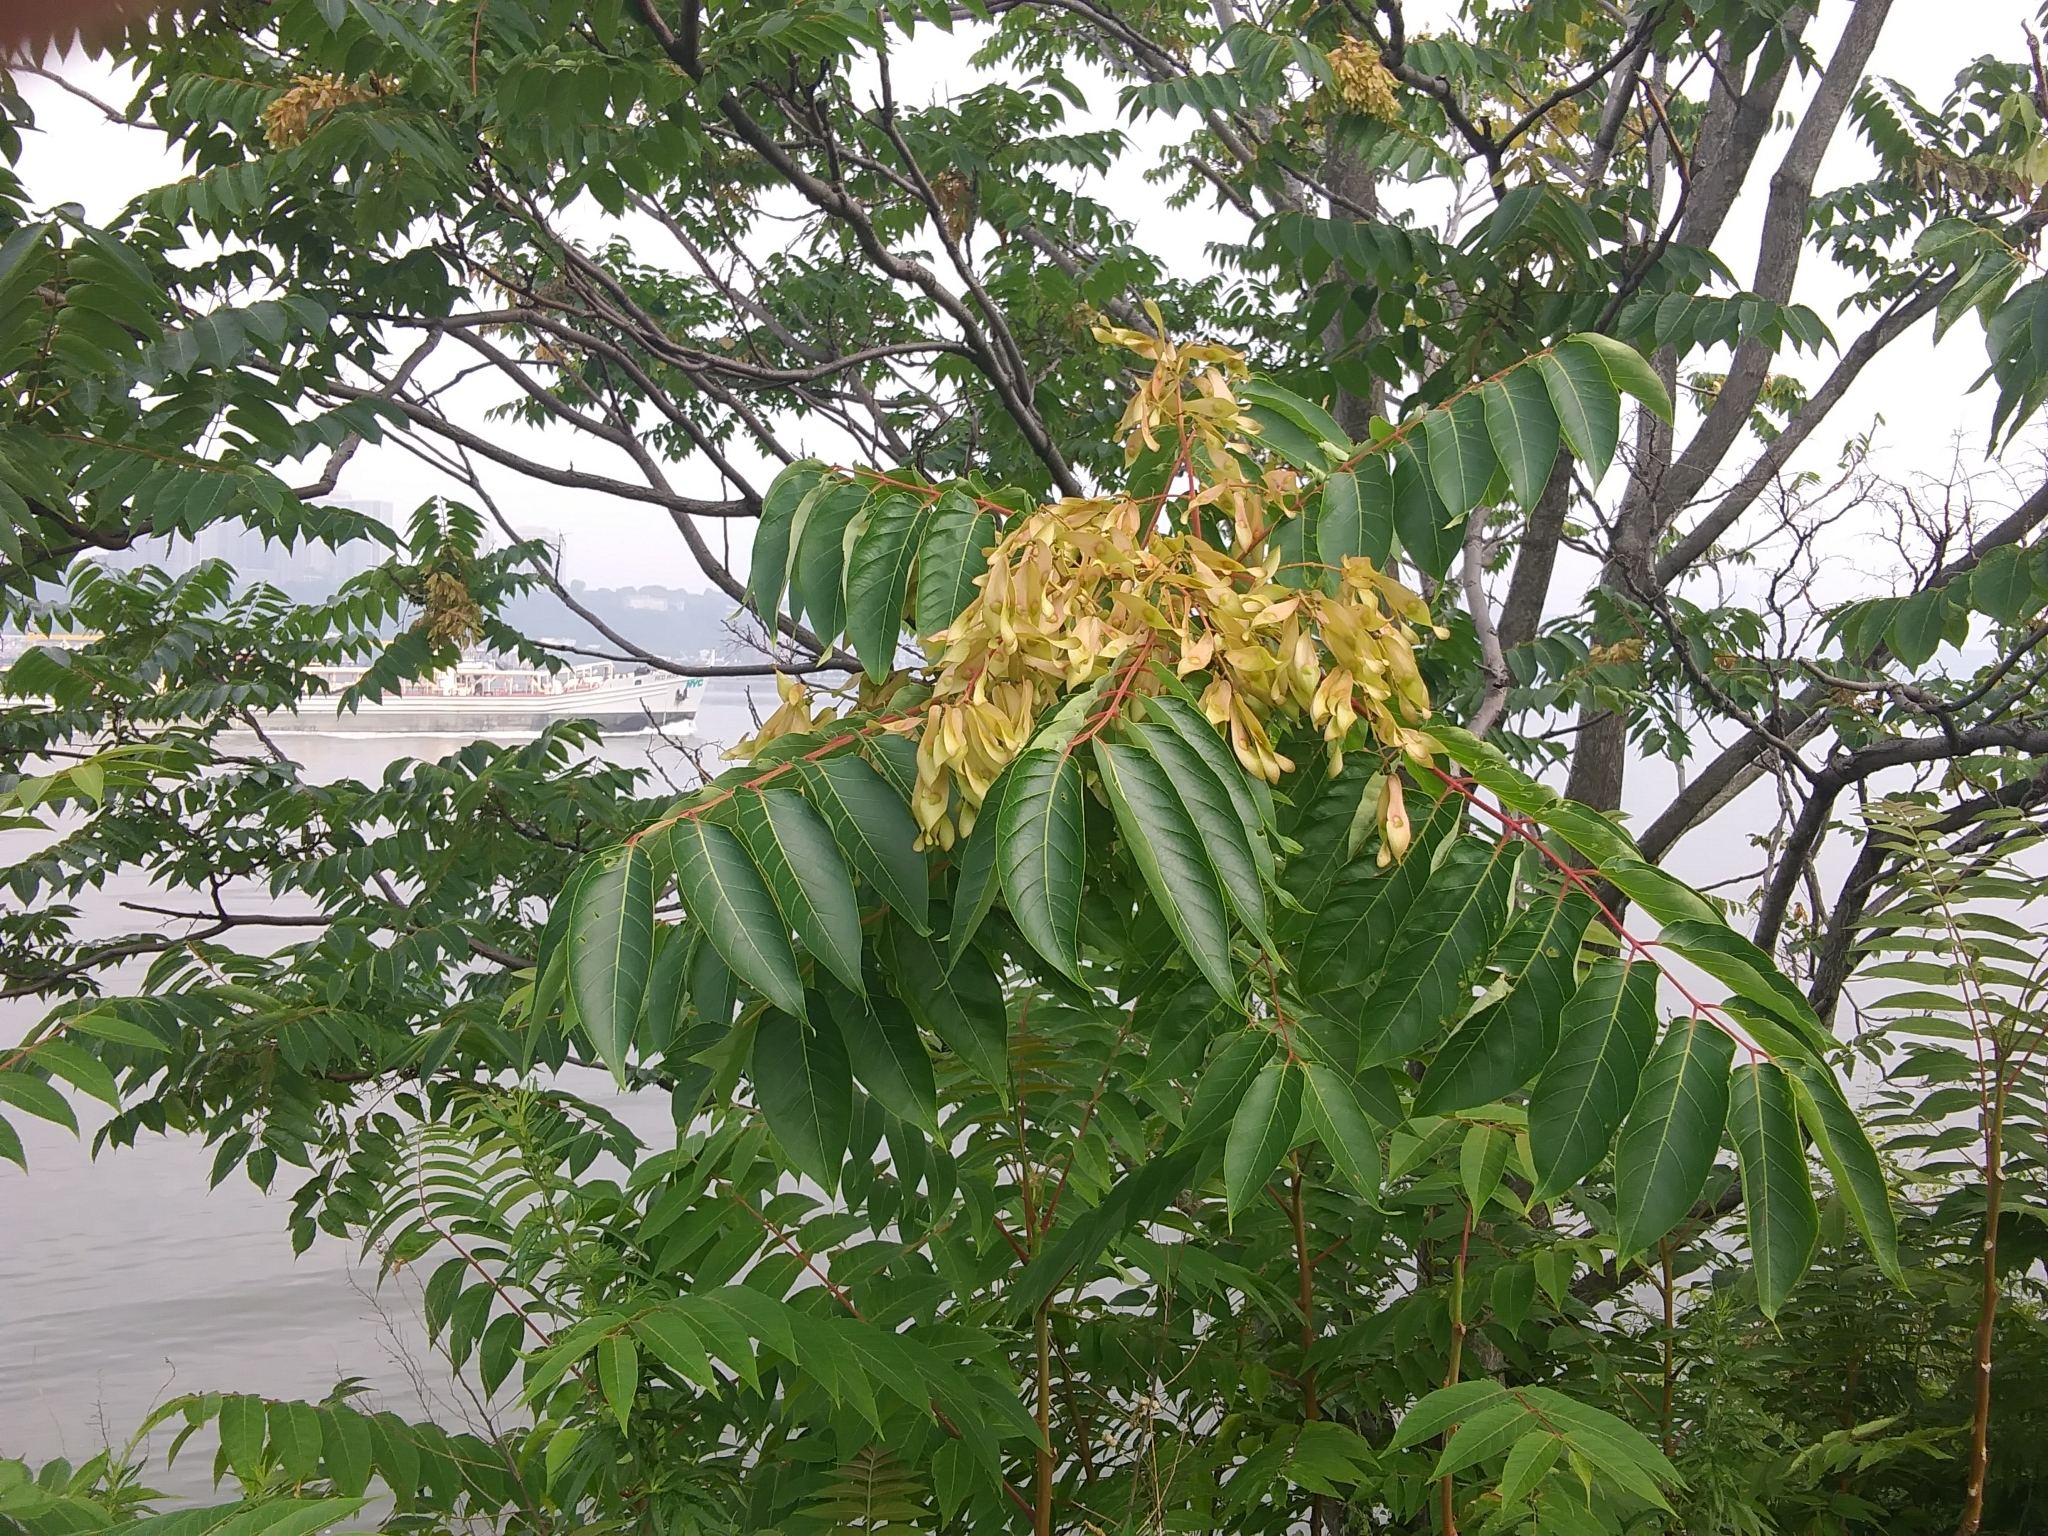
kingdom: Plantae
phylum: Tracheophyta
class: Magnoliopsida
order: Sapindales
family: Simaroubaceae
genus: Ailanthus
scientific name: Ailanthus altissima
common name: Tree-of-heaven
